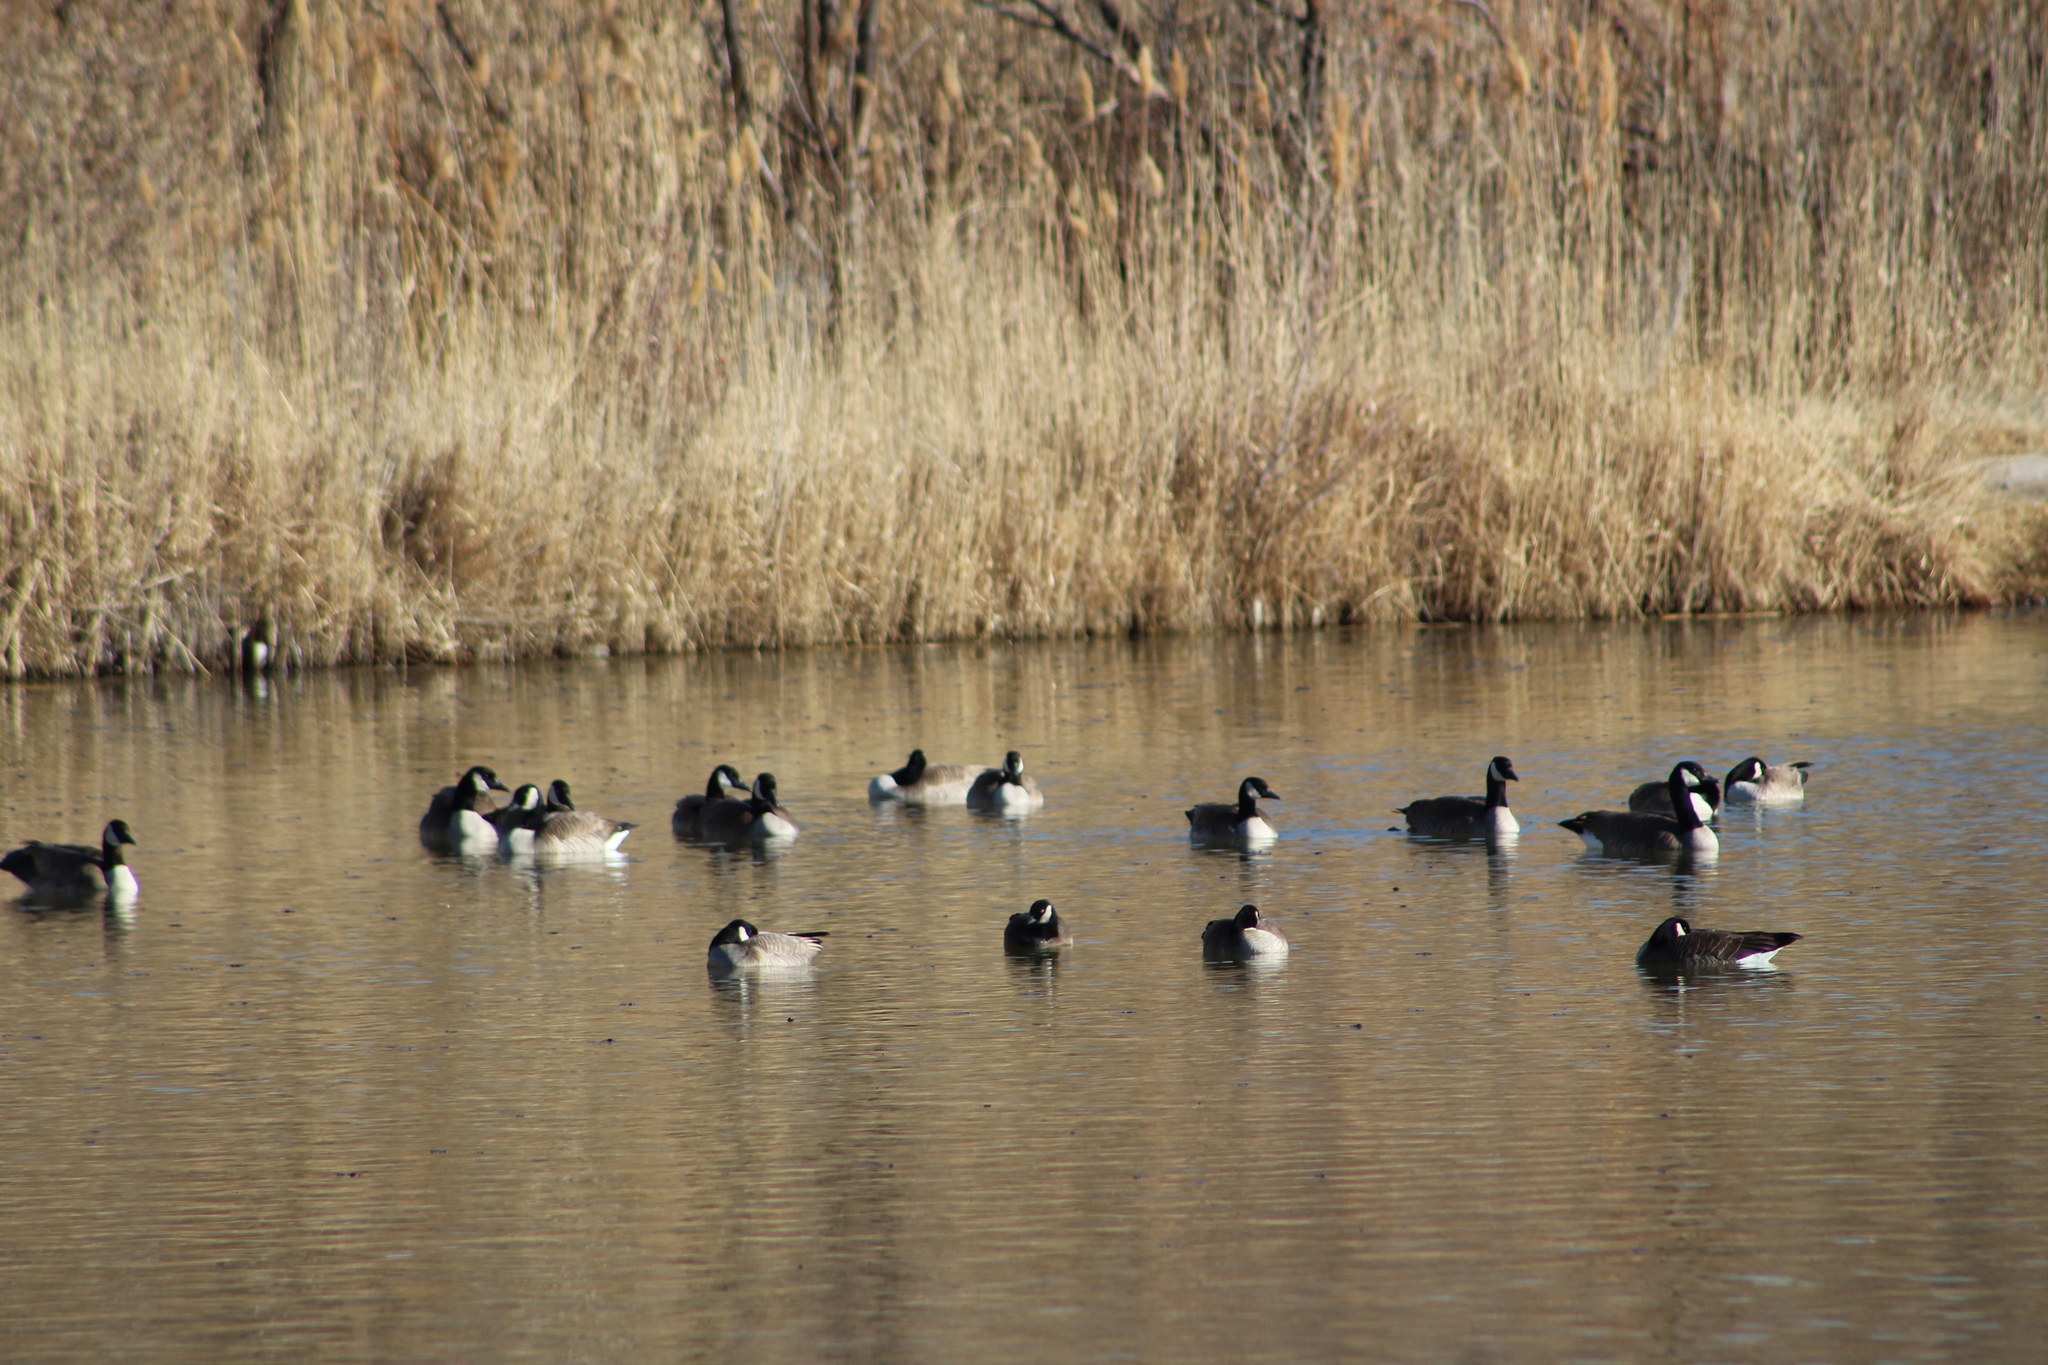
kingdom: Animalia
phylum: Chordata
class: Aves
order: Anseriformes
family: Anatidae
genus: Branta
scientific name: Branta hutchinsii
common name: Cackling goose
